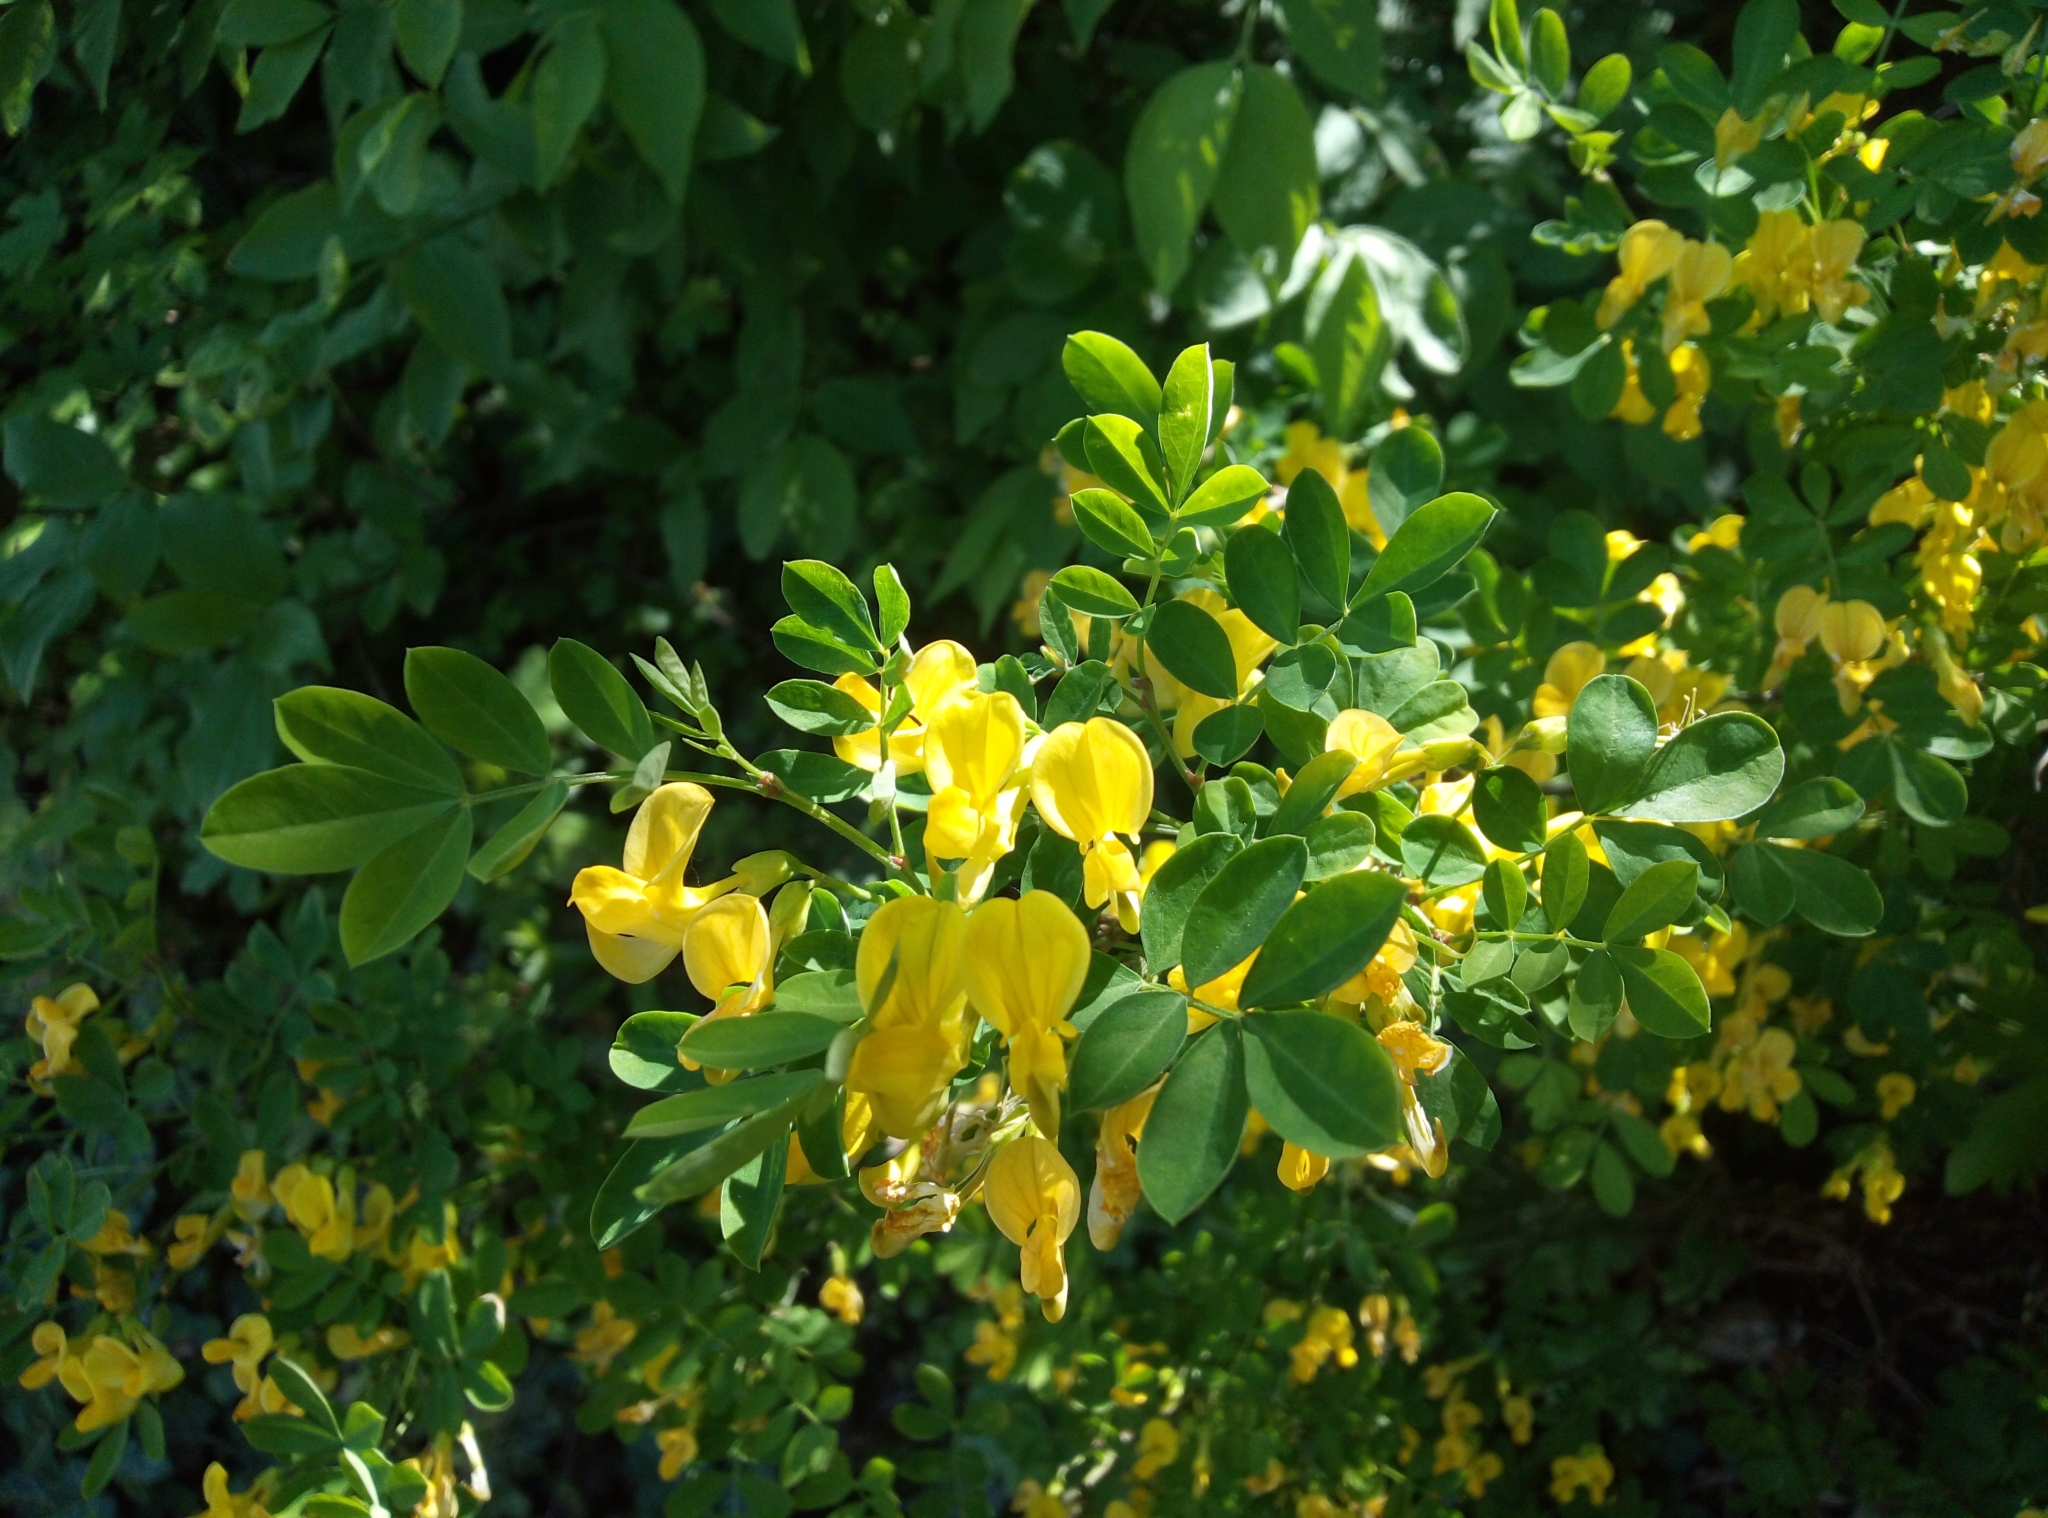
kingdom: Plantae
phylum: Tracheophyta
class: Magnoliopsida
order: Fabales
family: Fabaceae
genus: Hippocrepis
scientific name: Hippocrepis emerus
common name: Scorpion senna
